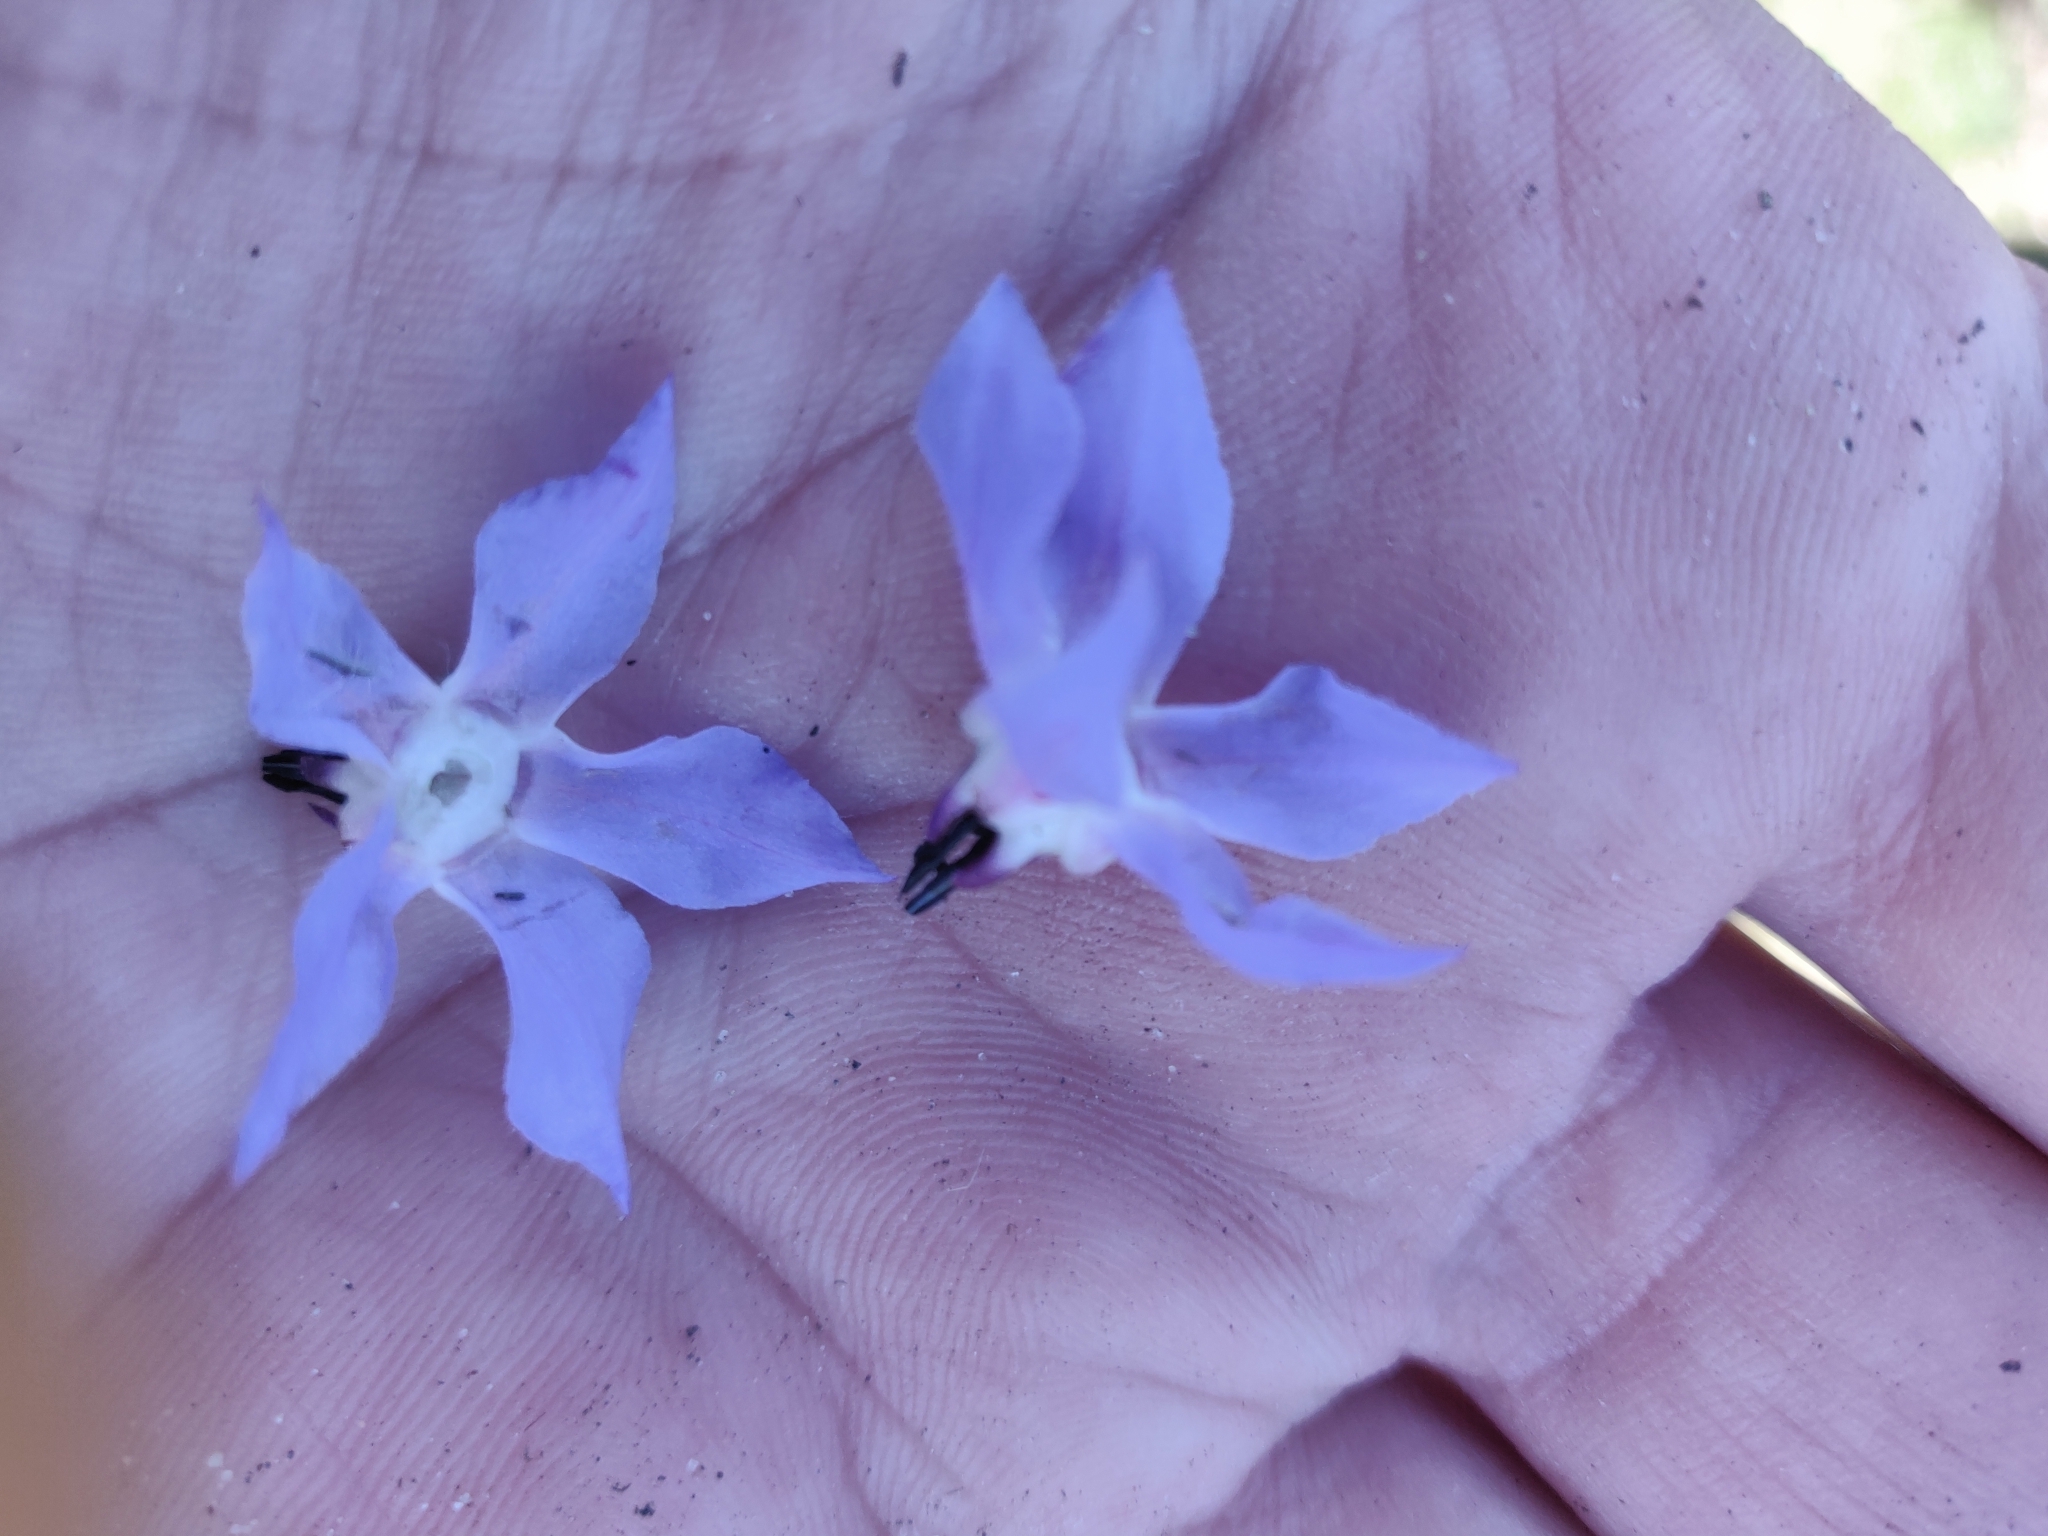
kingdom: Plantae
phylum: Tracheophyta
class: Magnoliopsida
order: Boraginales
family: Boraginaceae
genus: Borago
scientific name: Borago officinalis
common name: Borage
